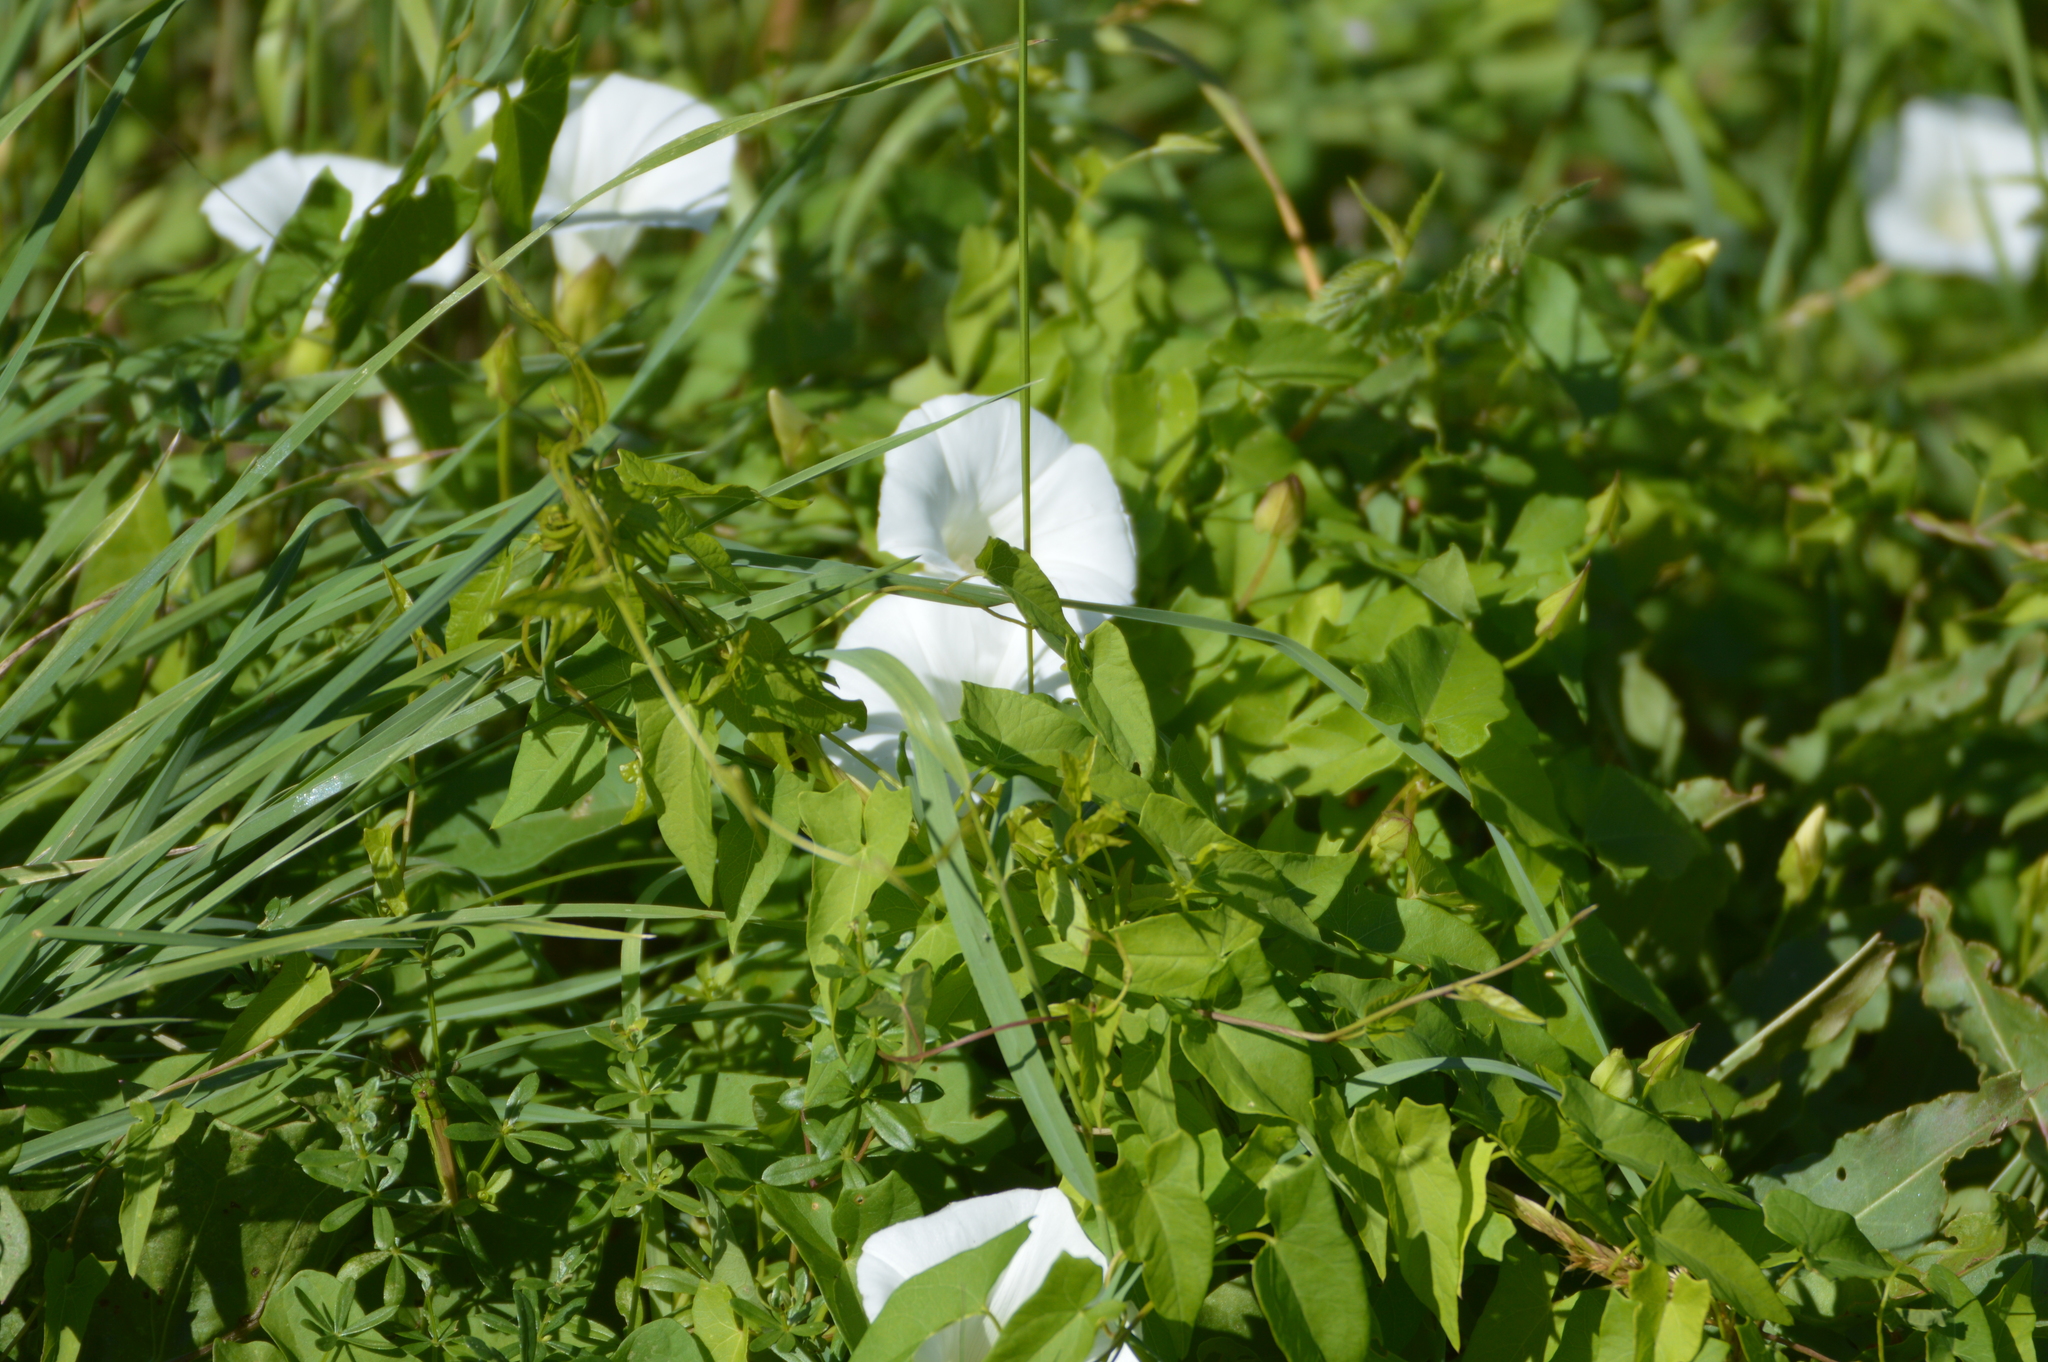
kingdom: Plantae
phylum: Tracheophyta
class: Magnoliopsida
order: Solanales
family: Convolvulaceae
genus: Calystegia
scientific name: Calystegia sepium
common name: Hedge bindweed
